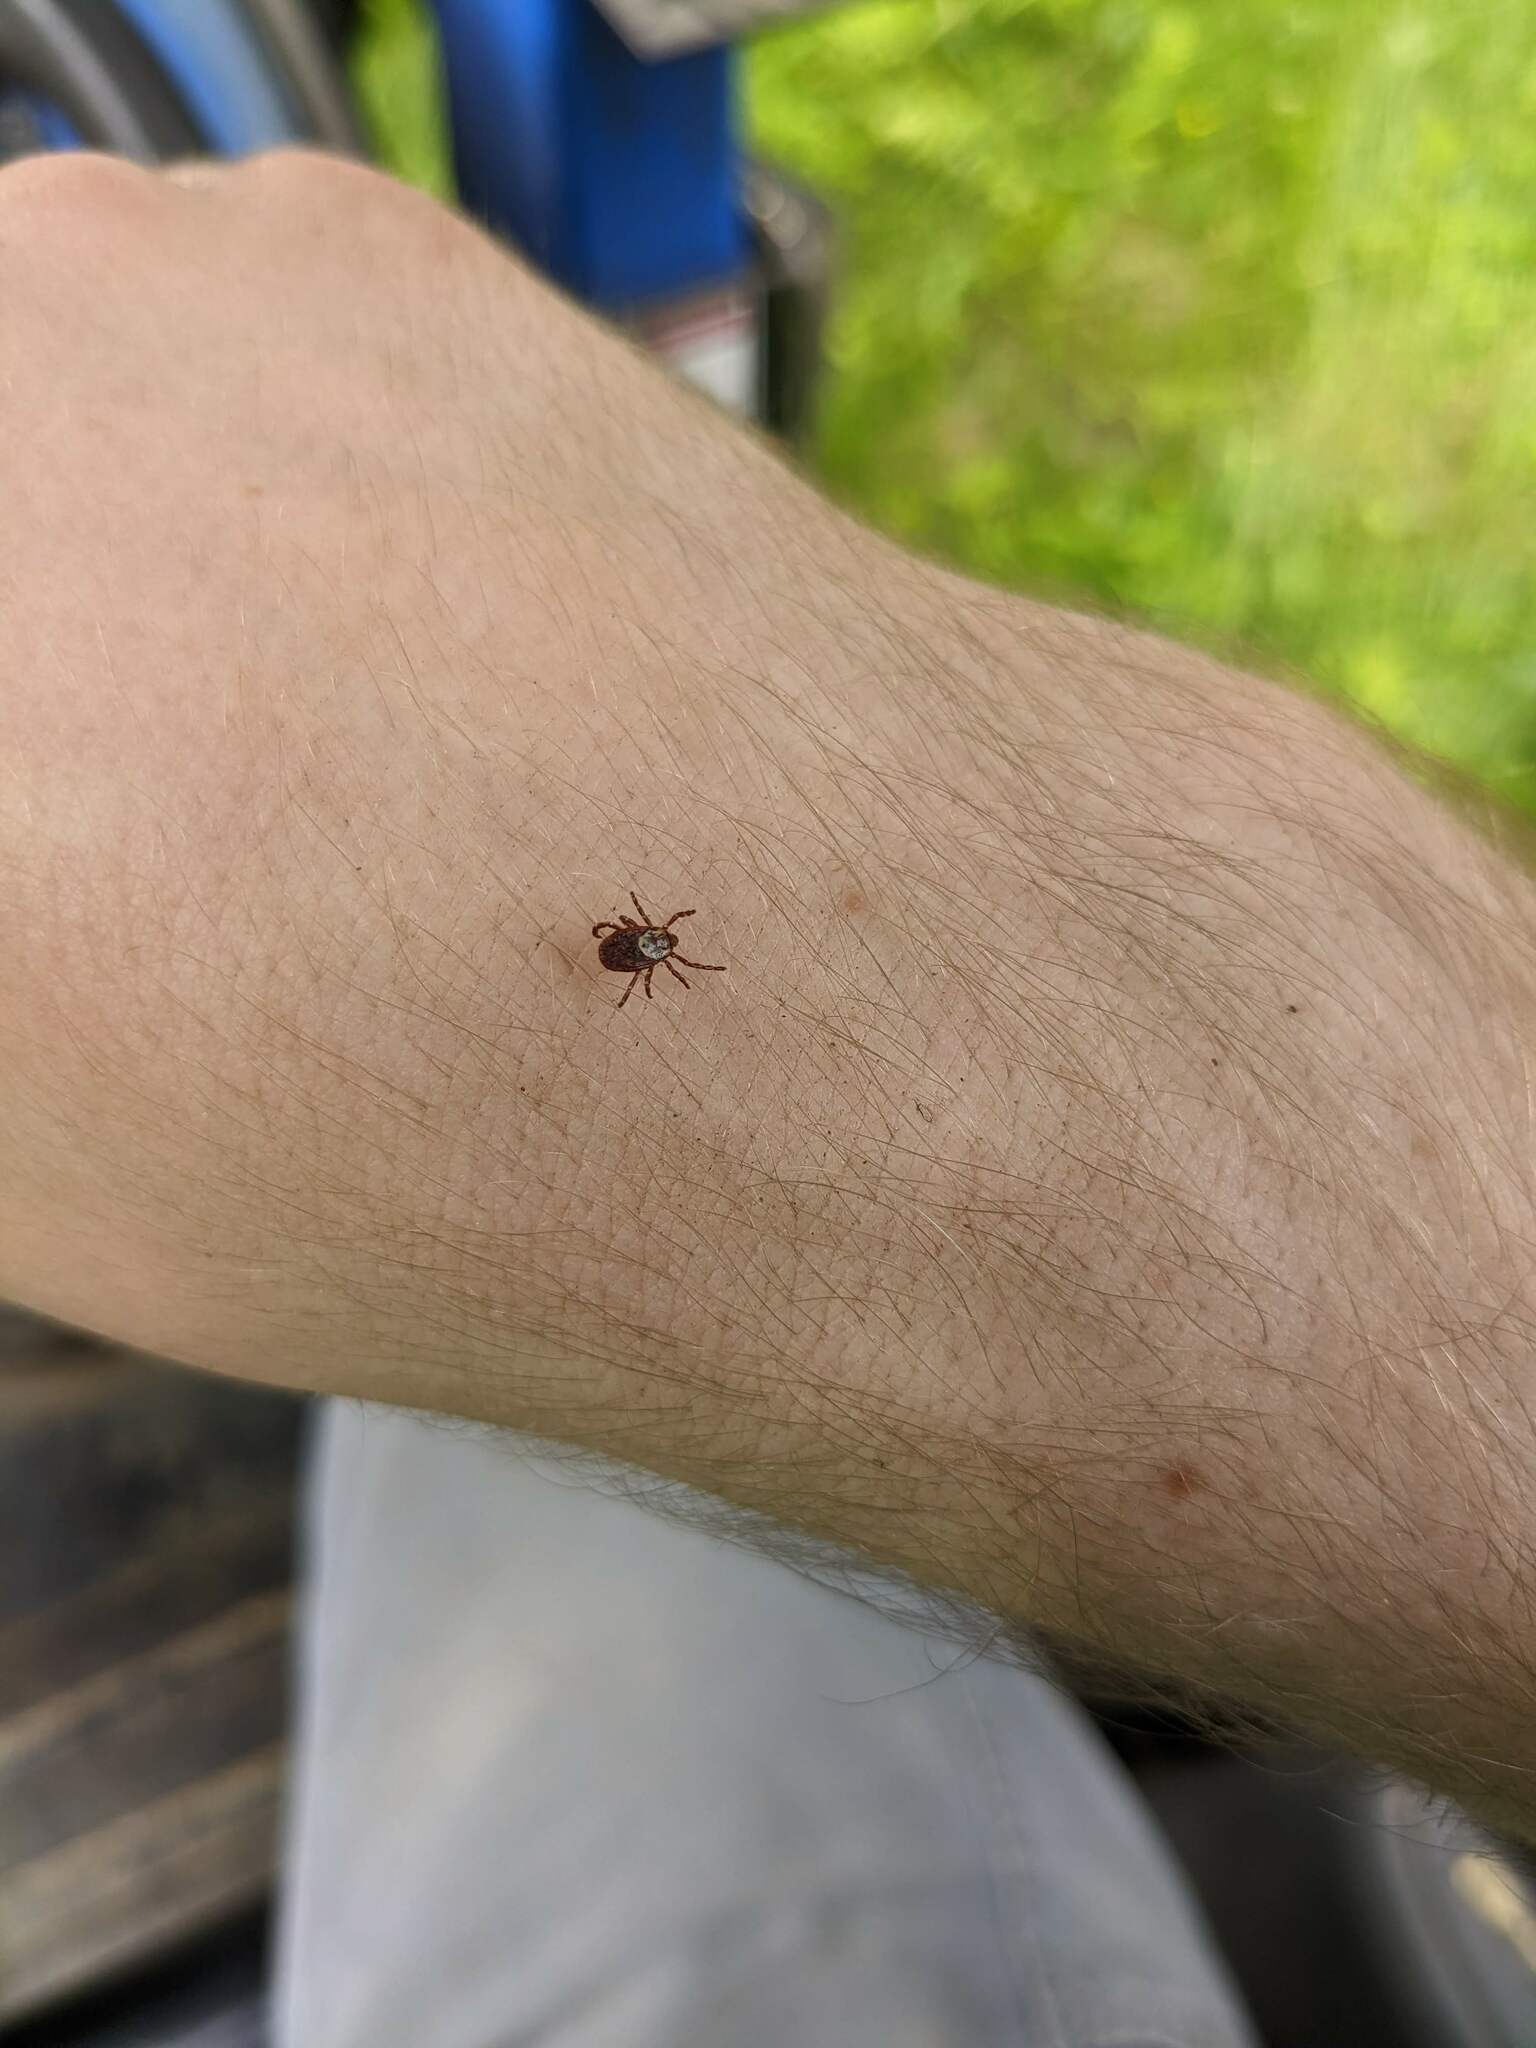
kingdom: Animalia
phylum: Arthropoda
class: Arachnida
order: Ixodida
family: Ixodidae
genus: Dermacentor
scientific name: Dermacentor variabilis
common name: American dog tick
